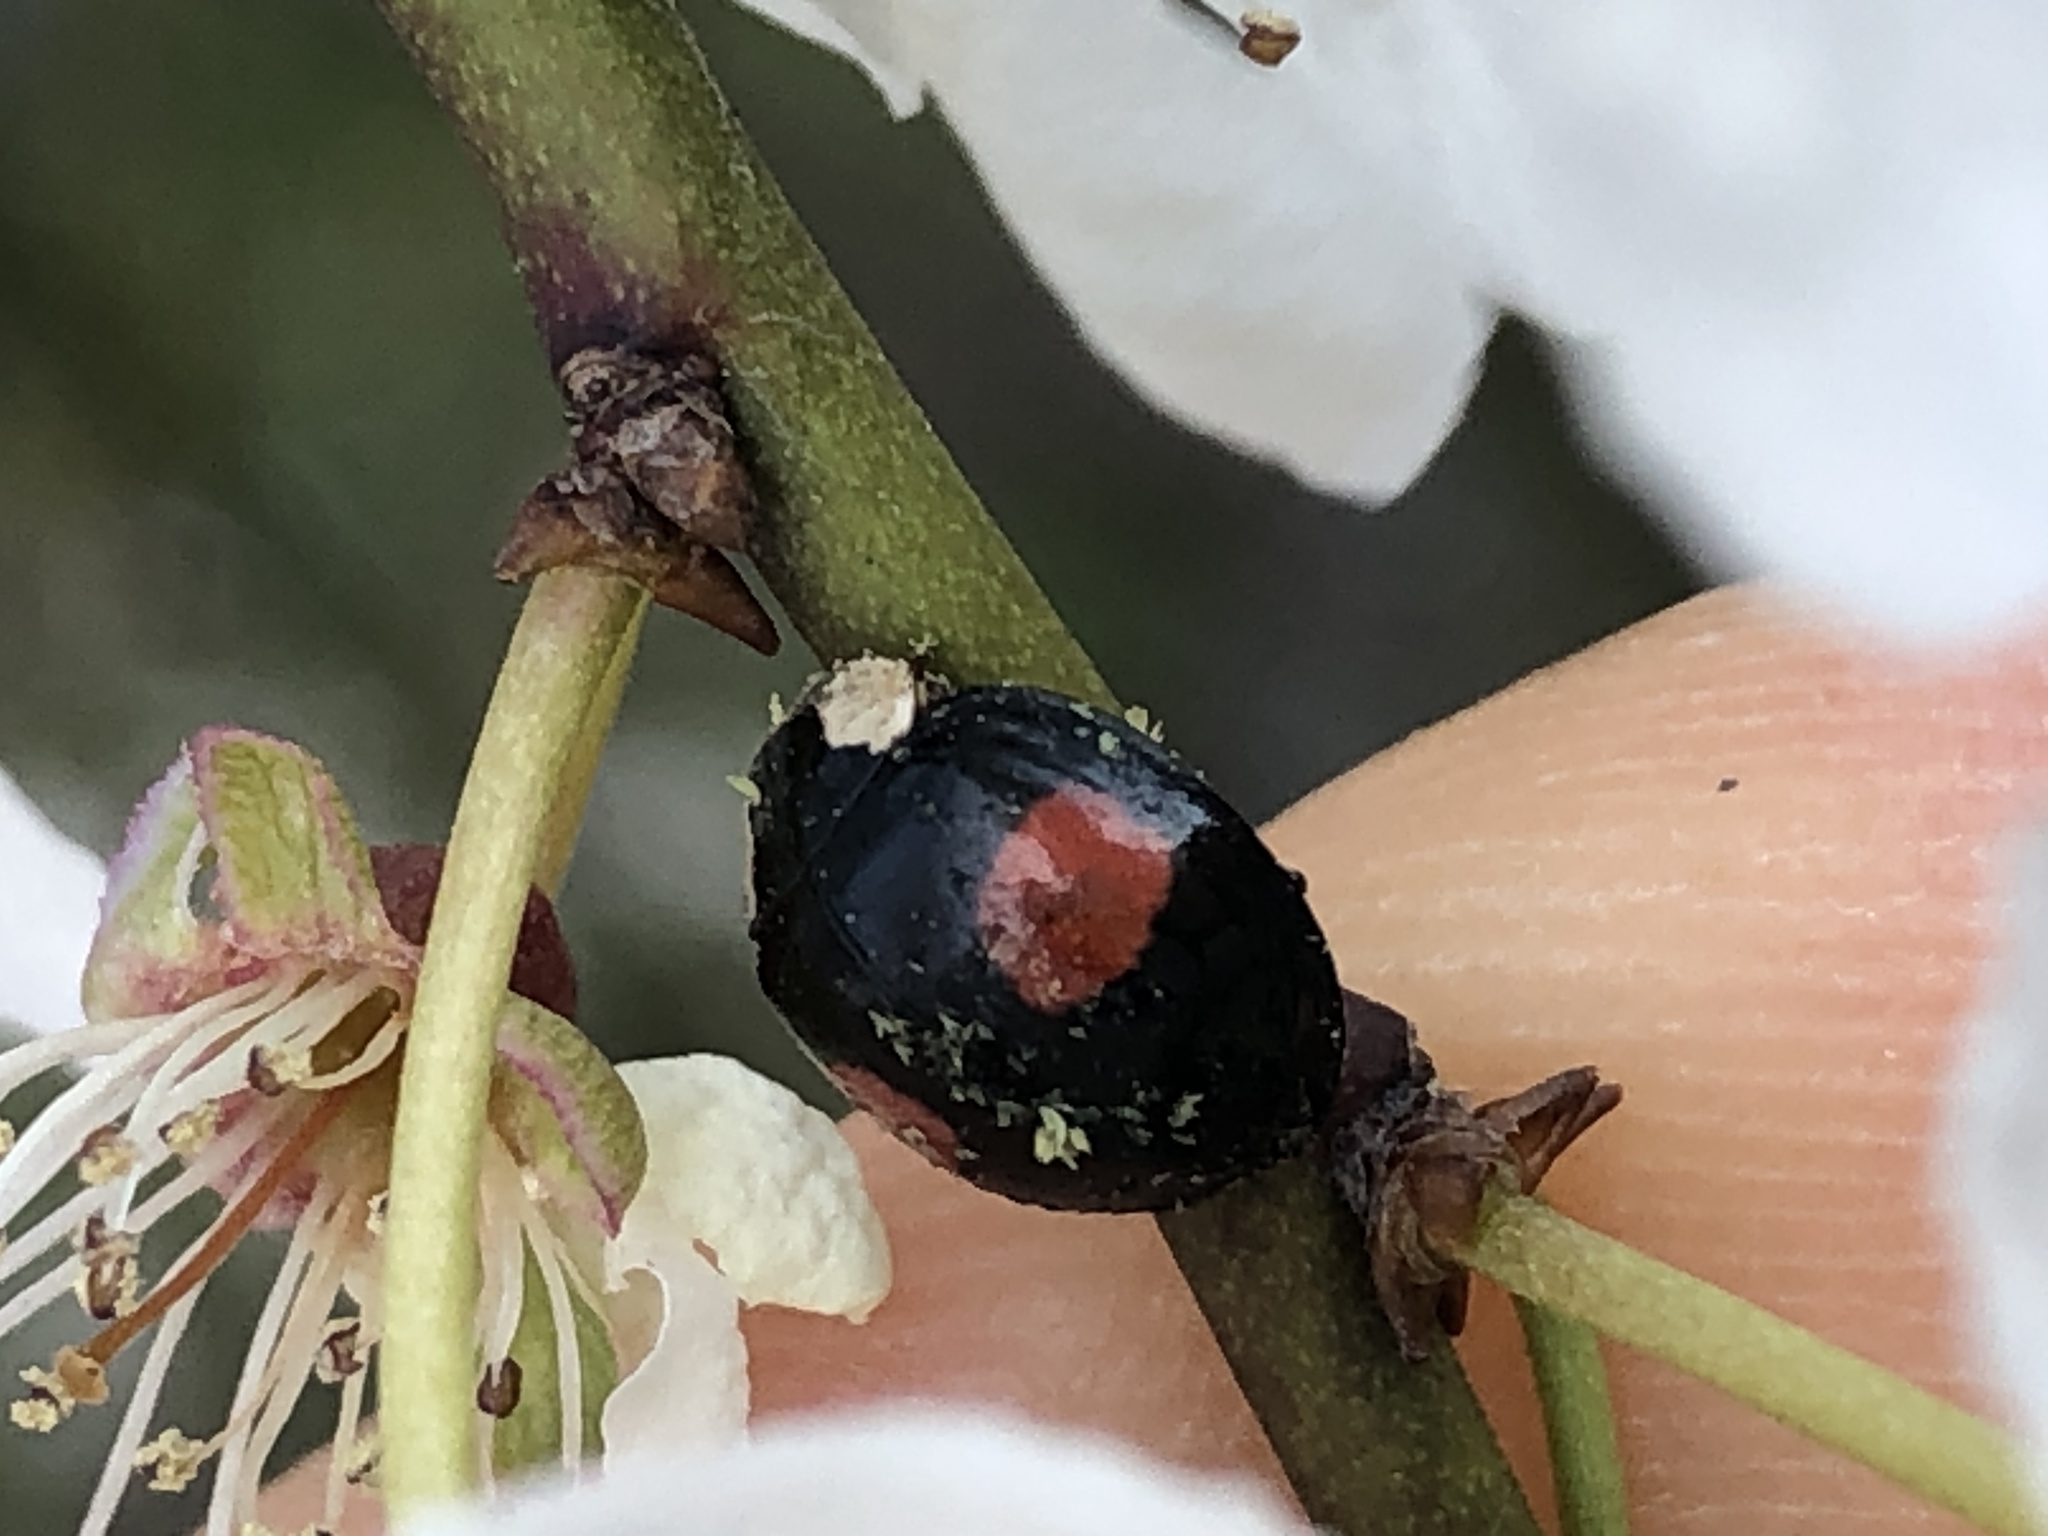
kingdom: Fungi
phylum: Ascomycota
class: Laboulbeniomycetes
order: Laboulbeniales
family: Laboulbeniaceae
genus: Hesperomyces
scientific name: Hesperomyces harmoniae
